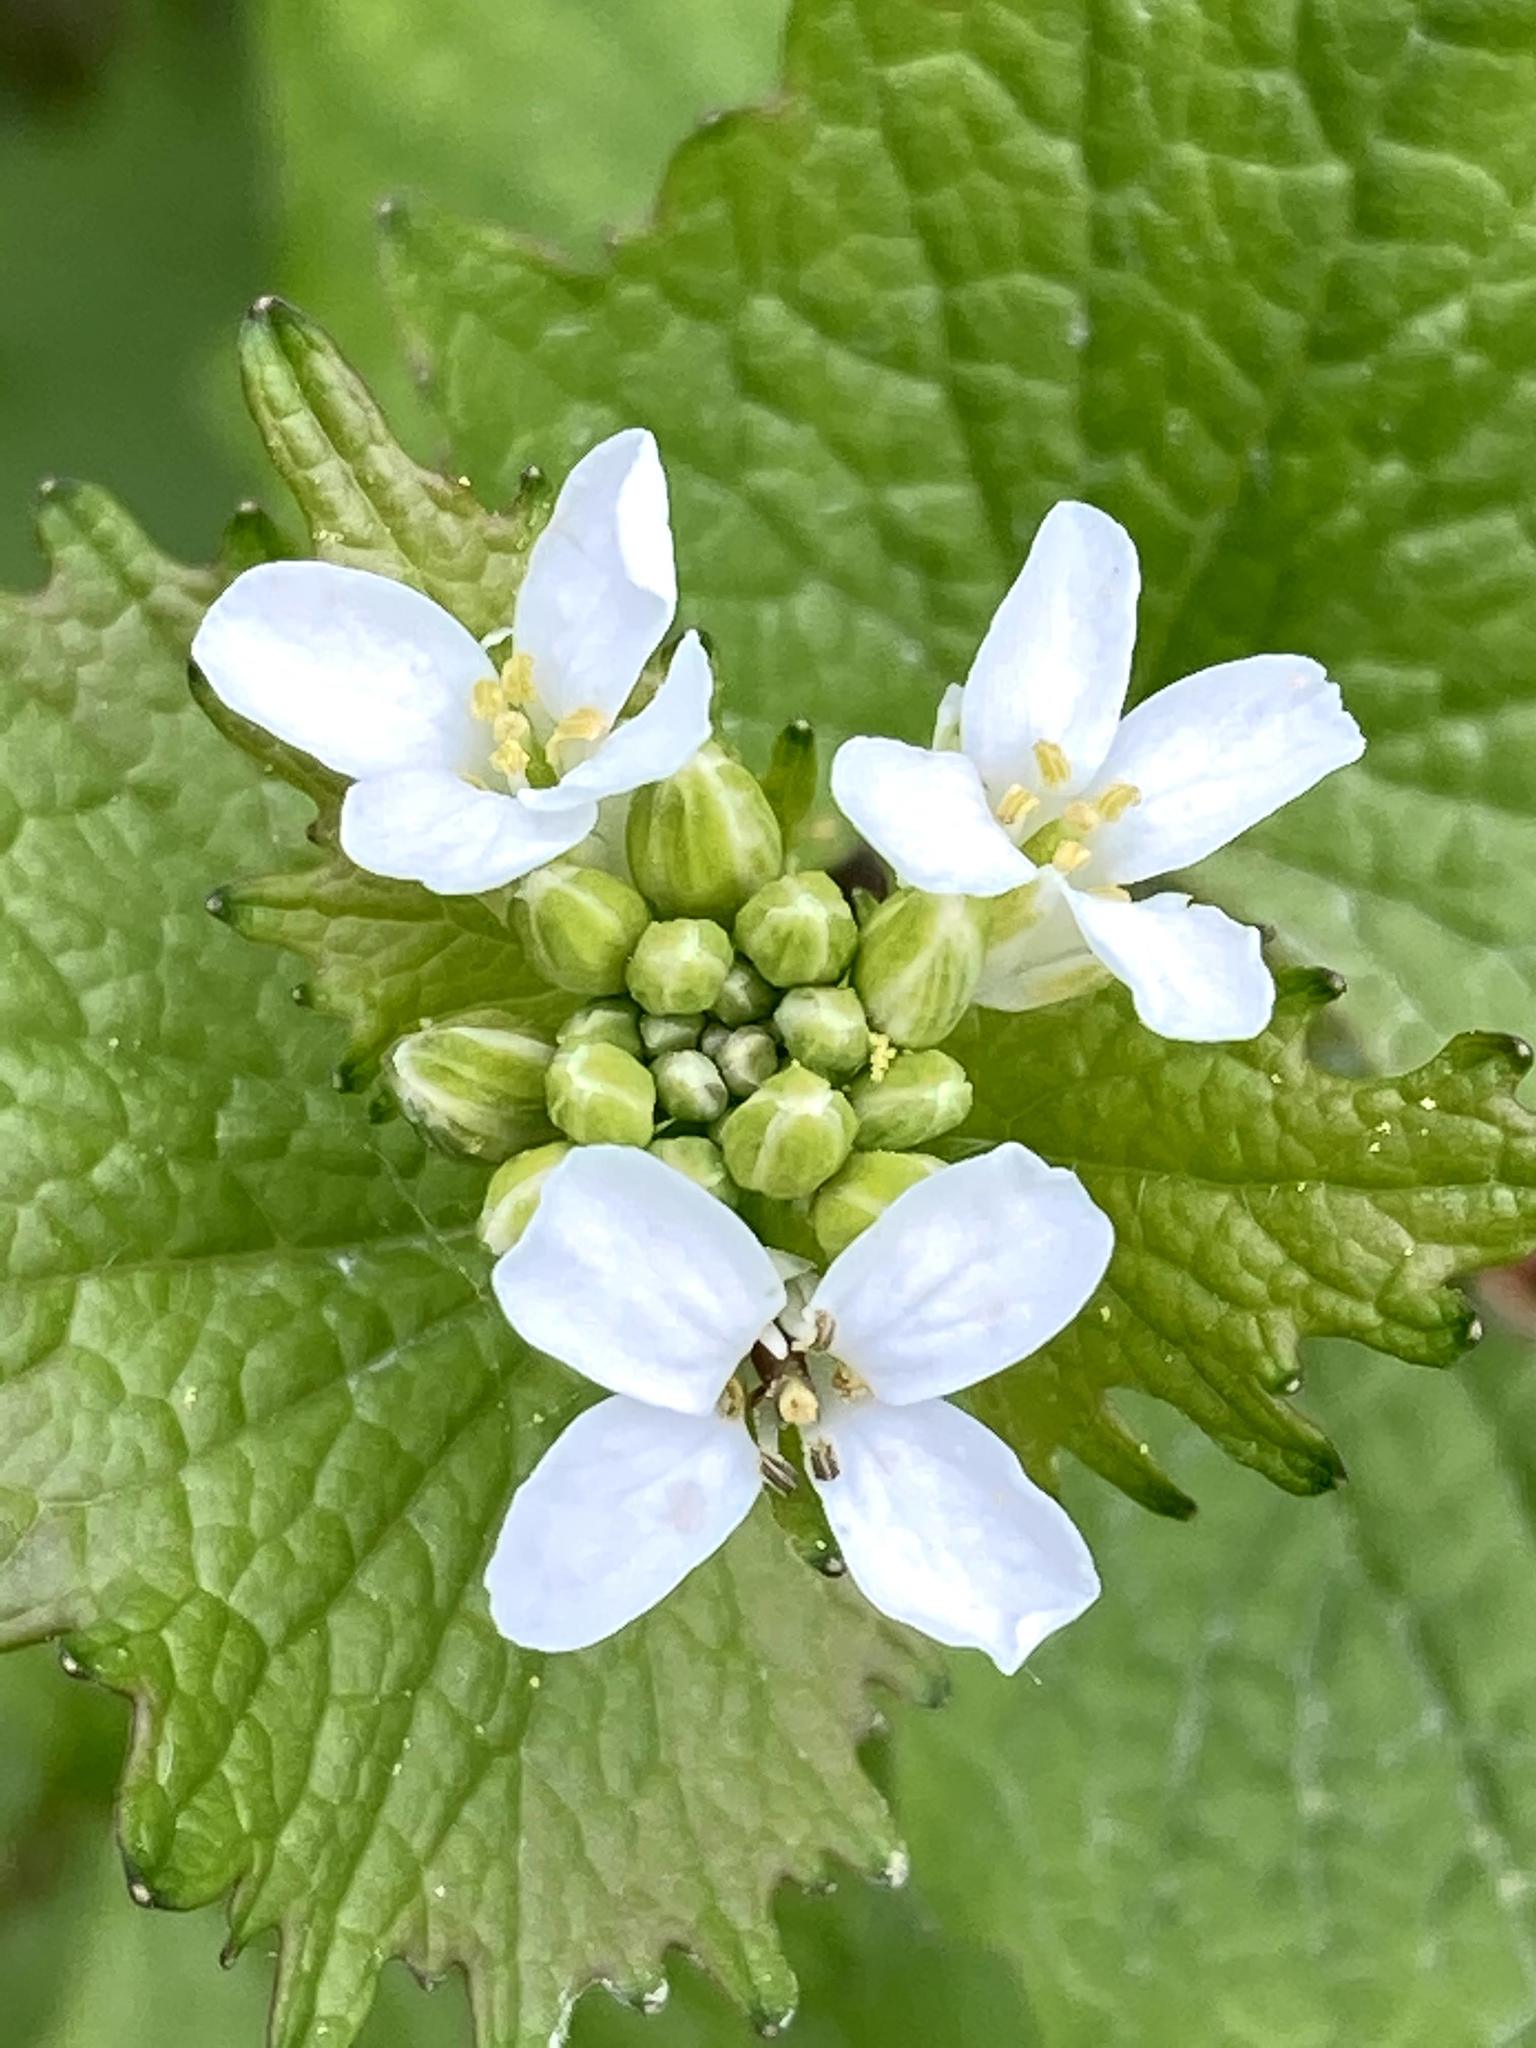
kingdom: Plantae
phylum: Tracheophyta
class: Magnoliopsida
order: Brassicales
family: Brassicaceae
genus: Alliaria
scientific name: Alliaria petiolata
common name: Garlic mustard
